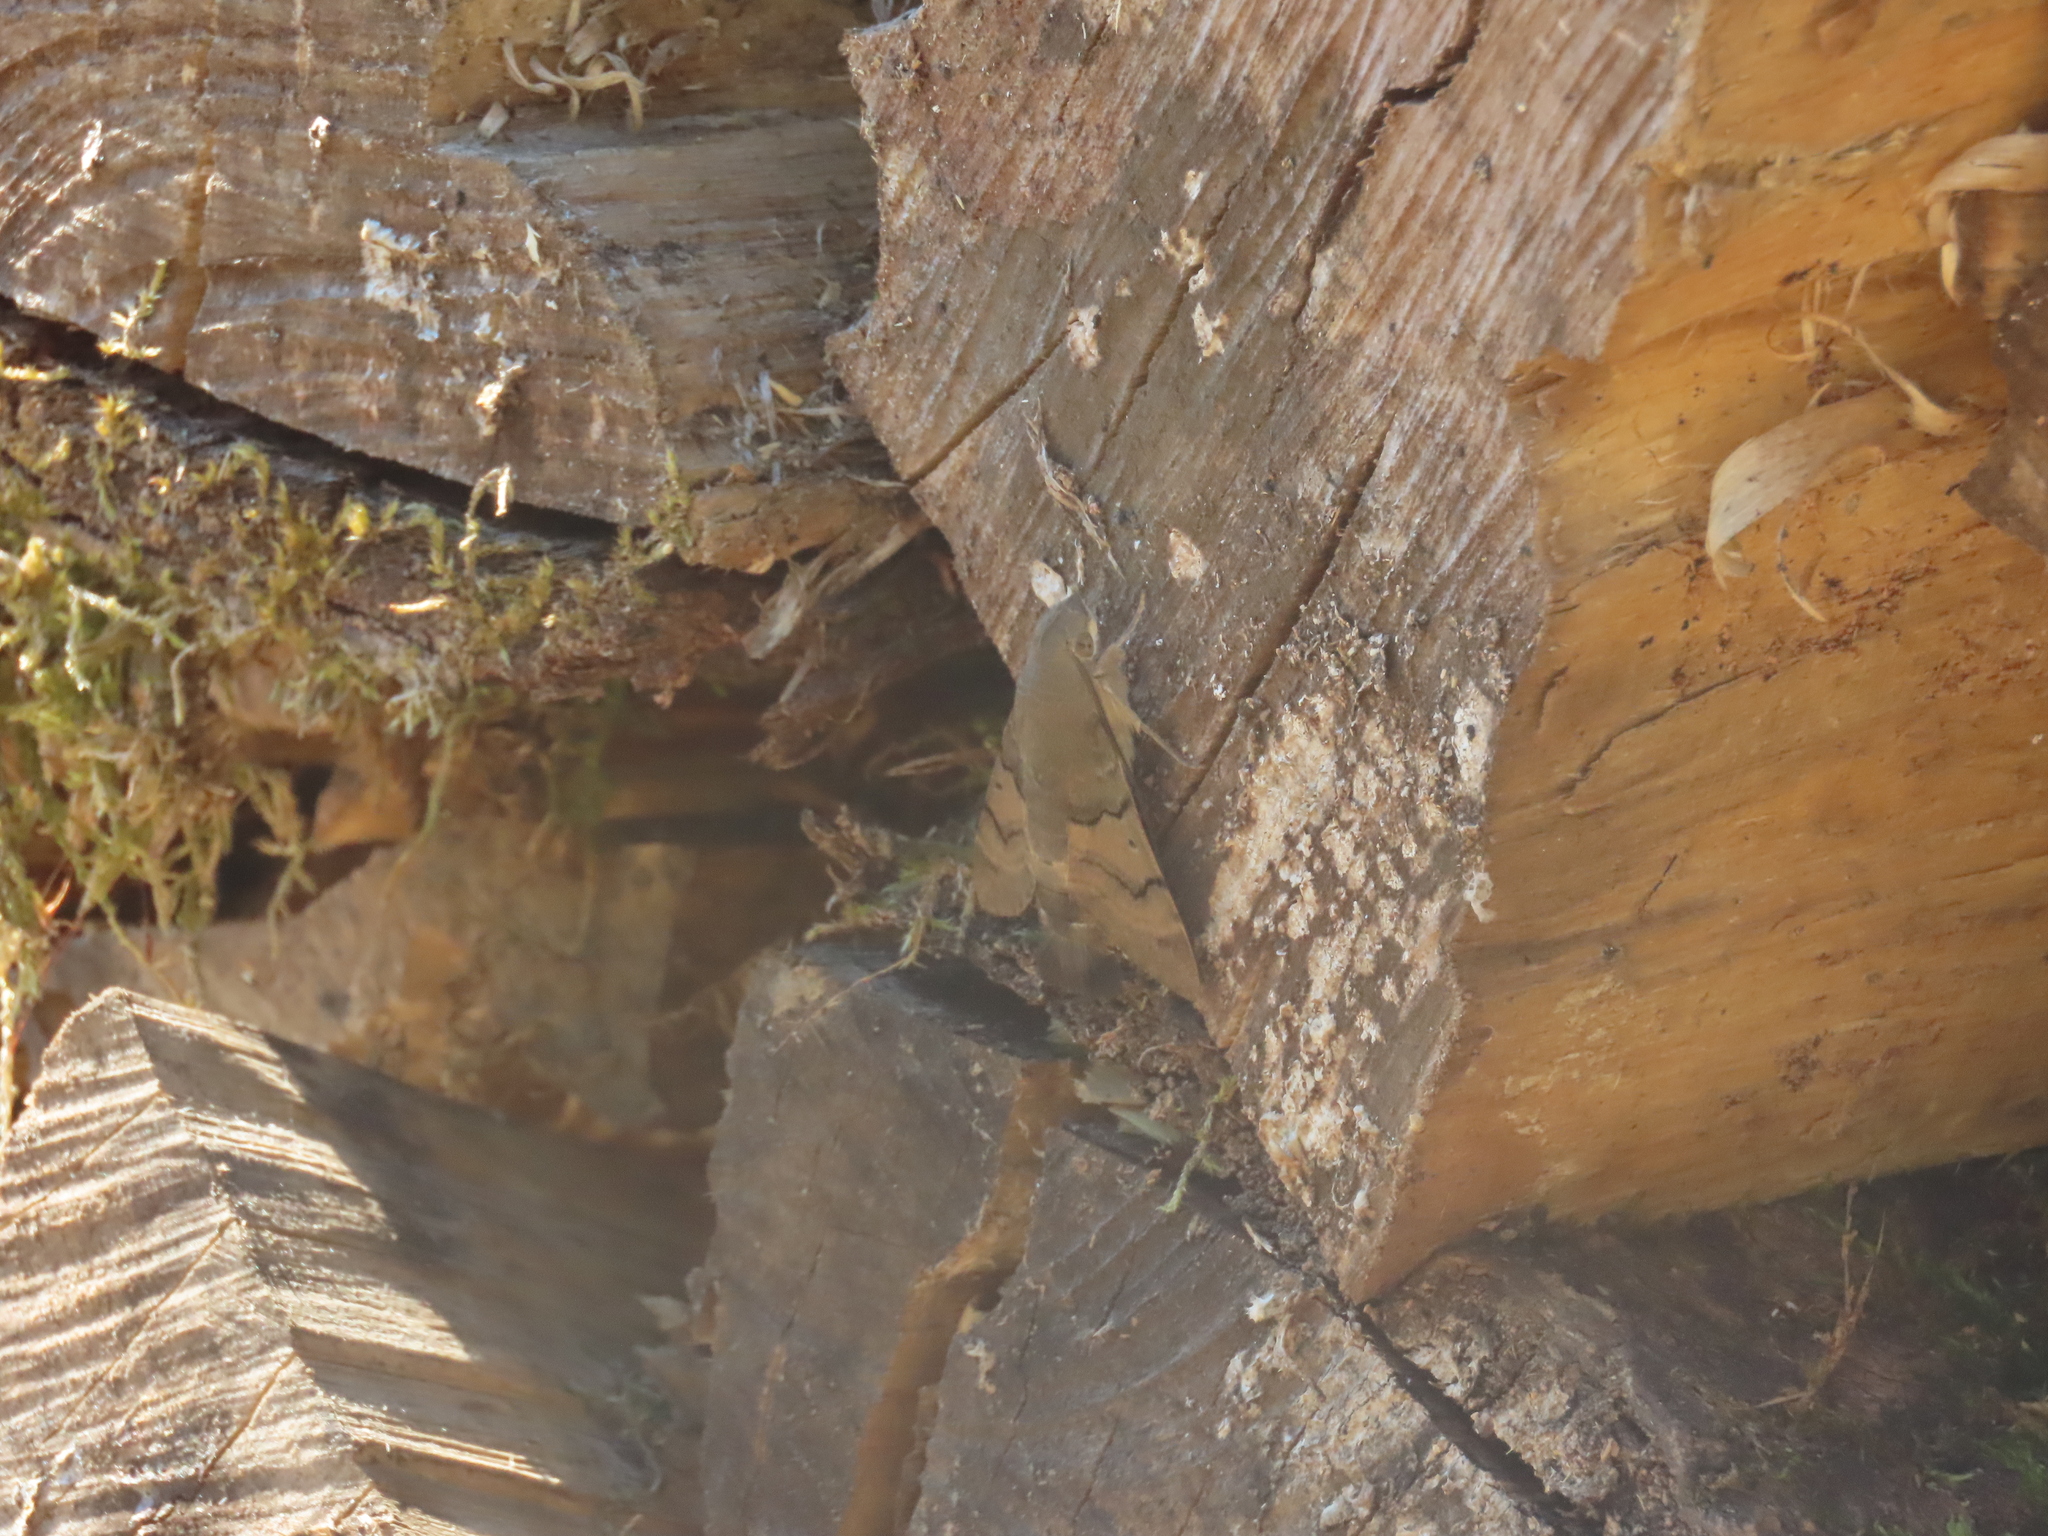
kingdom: Animalia
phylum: Arthropoda
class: Insecta
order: Lepidoptera
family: Sphingidae
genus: Macroglossum
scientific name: Macroglossum stellatarum
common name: Humming-bird hawk-moth
